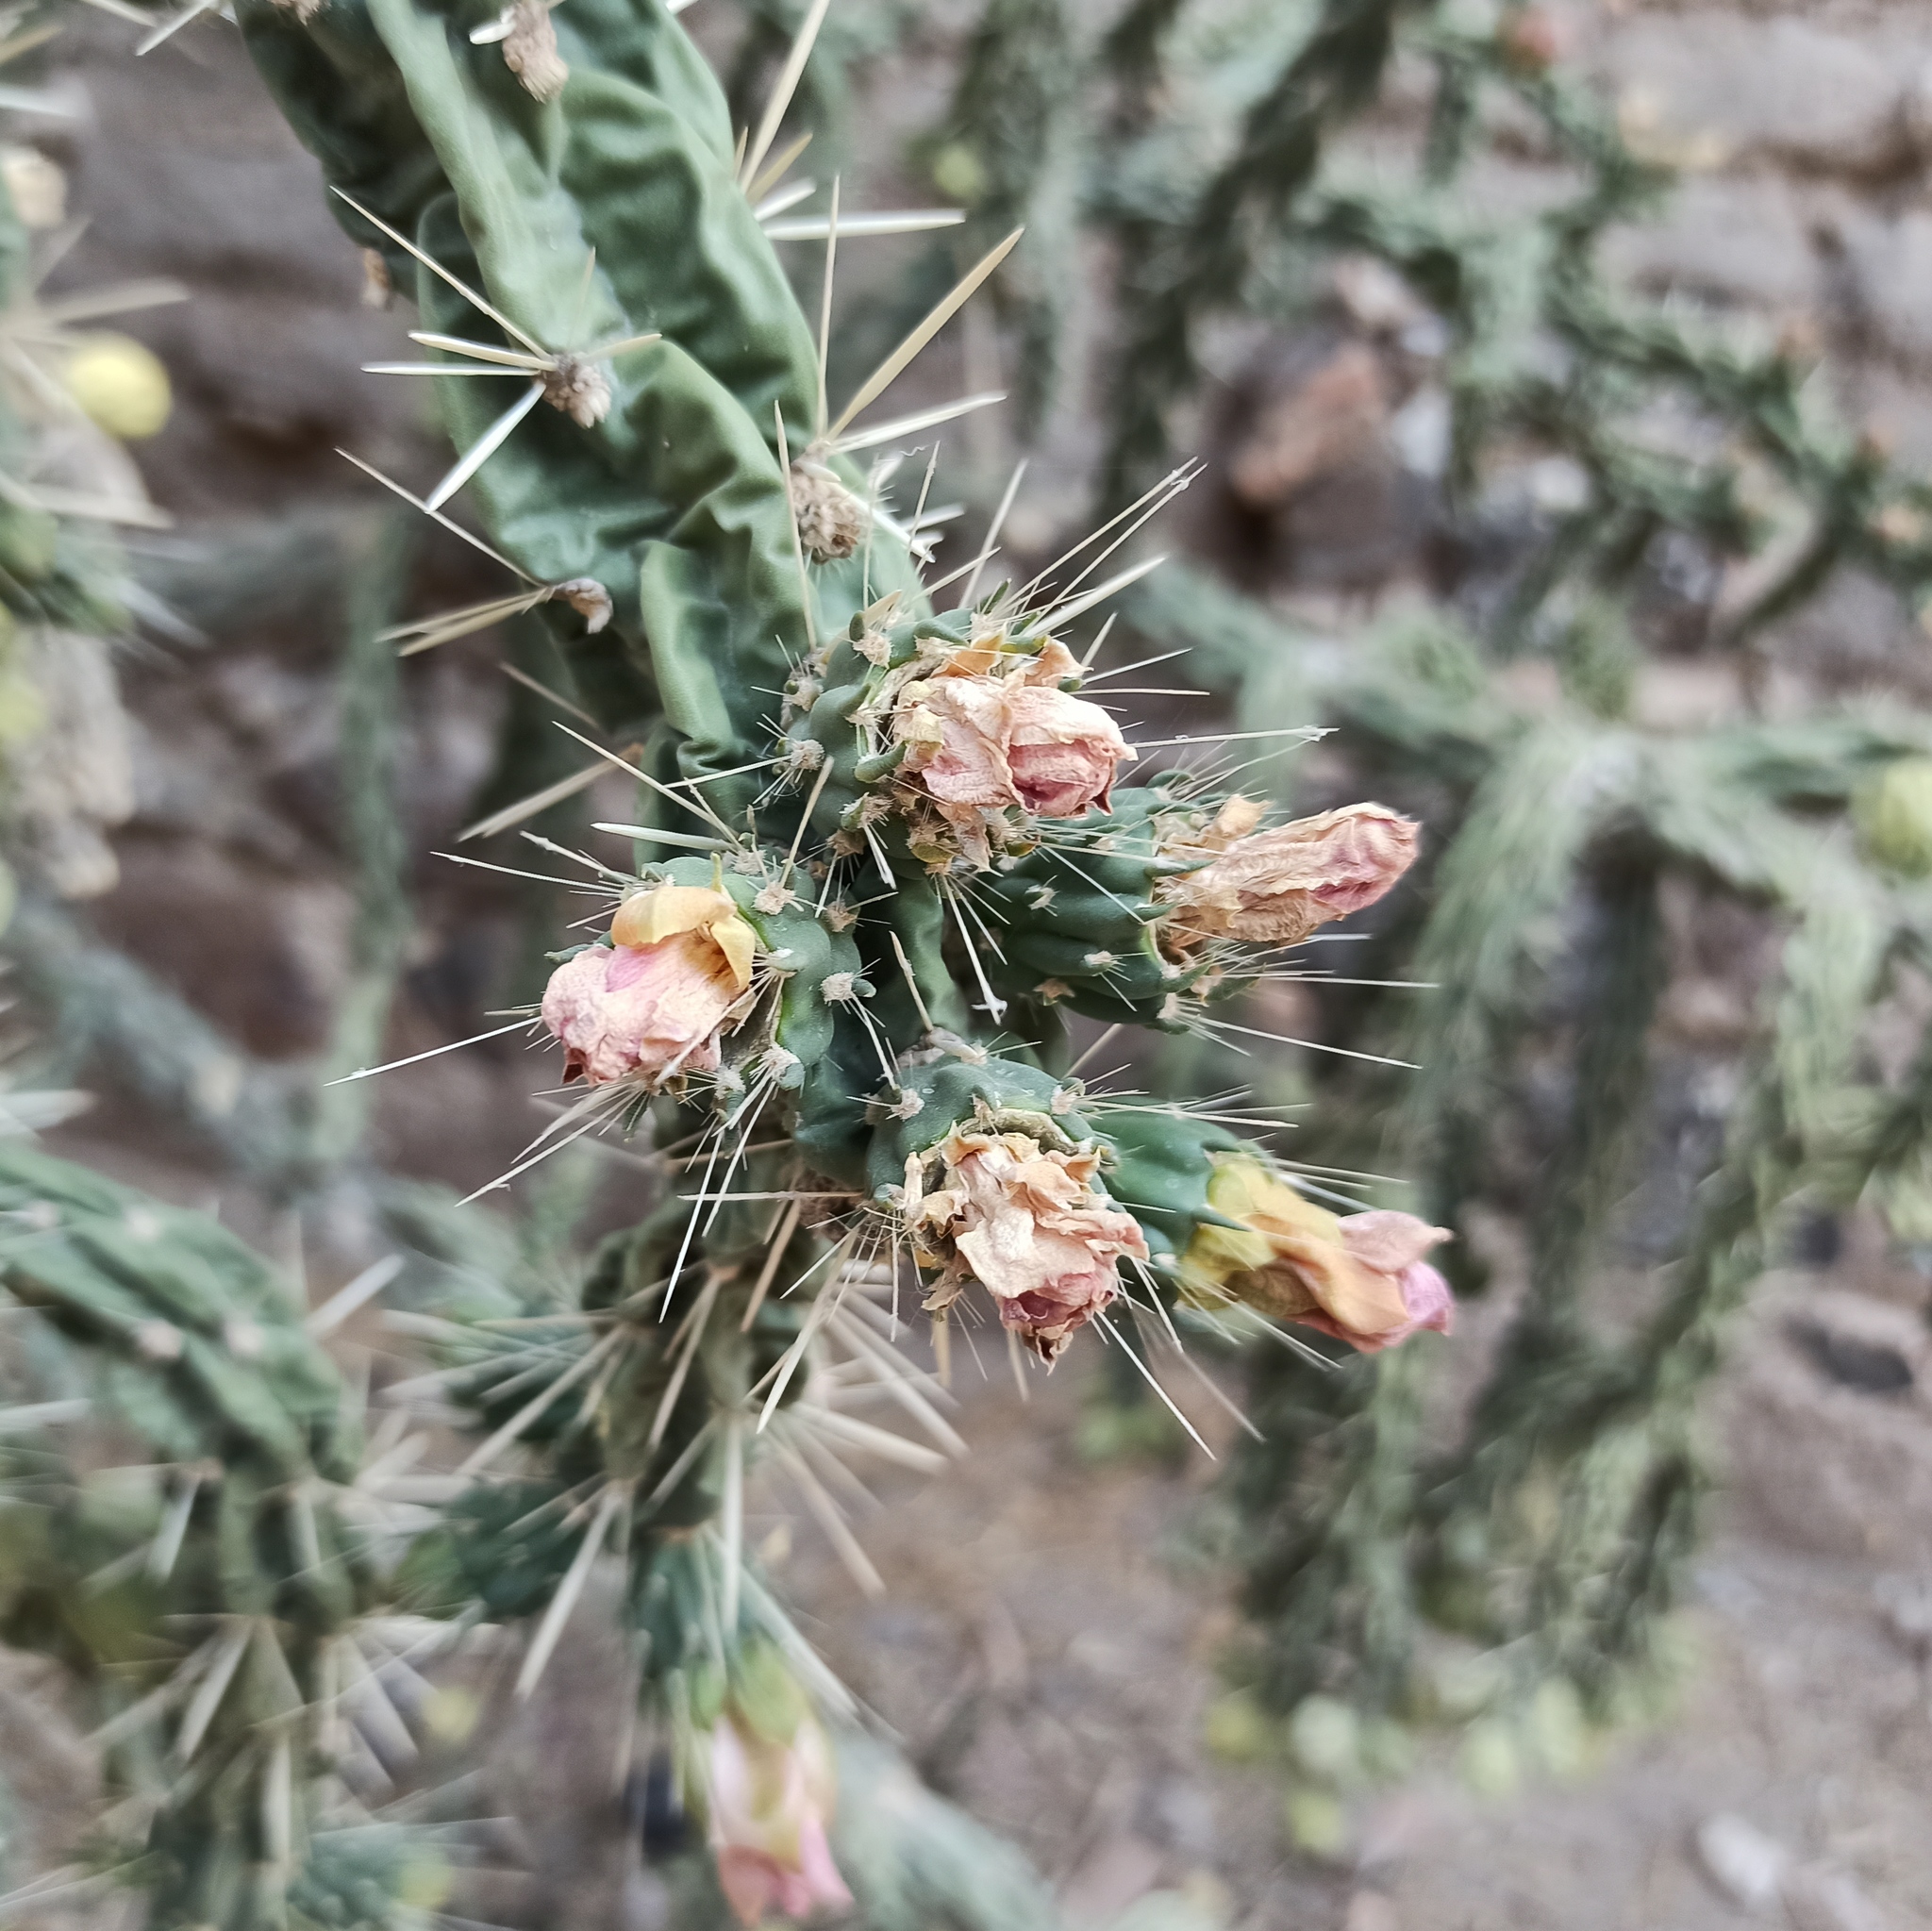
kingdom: Plantae
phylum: Tracheophyta
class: Magnoliopsida
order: Caryophyllales
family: Cactaceae
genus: Cylindropuntia
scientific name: Cylindropuntia imbricata
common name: Candelabrum cactus
